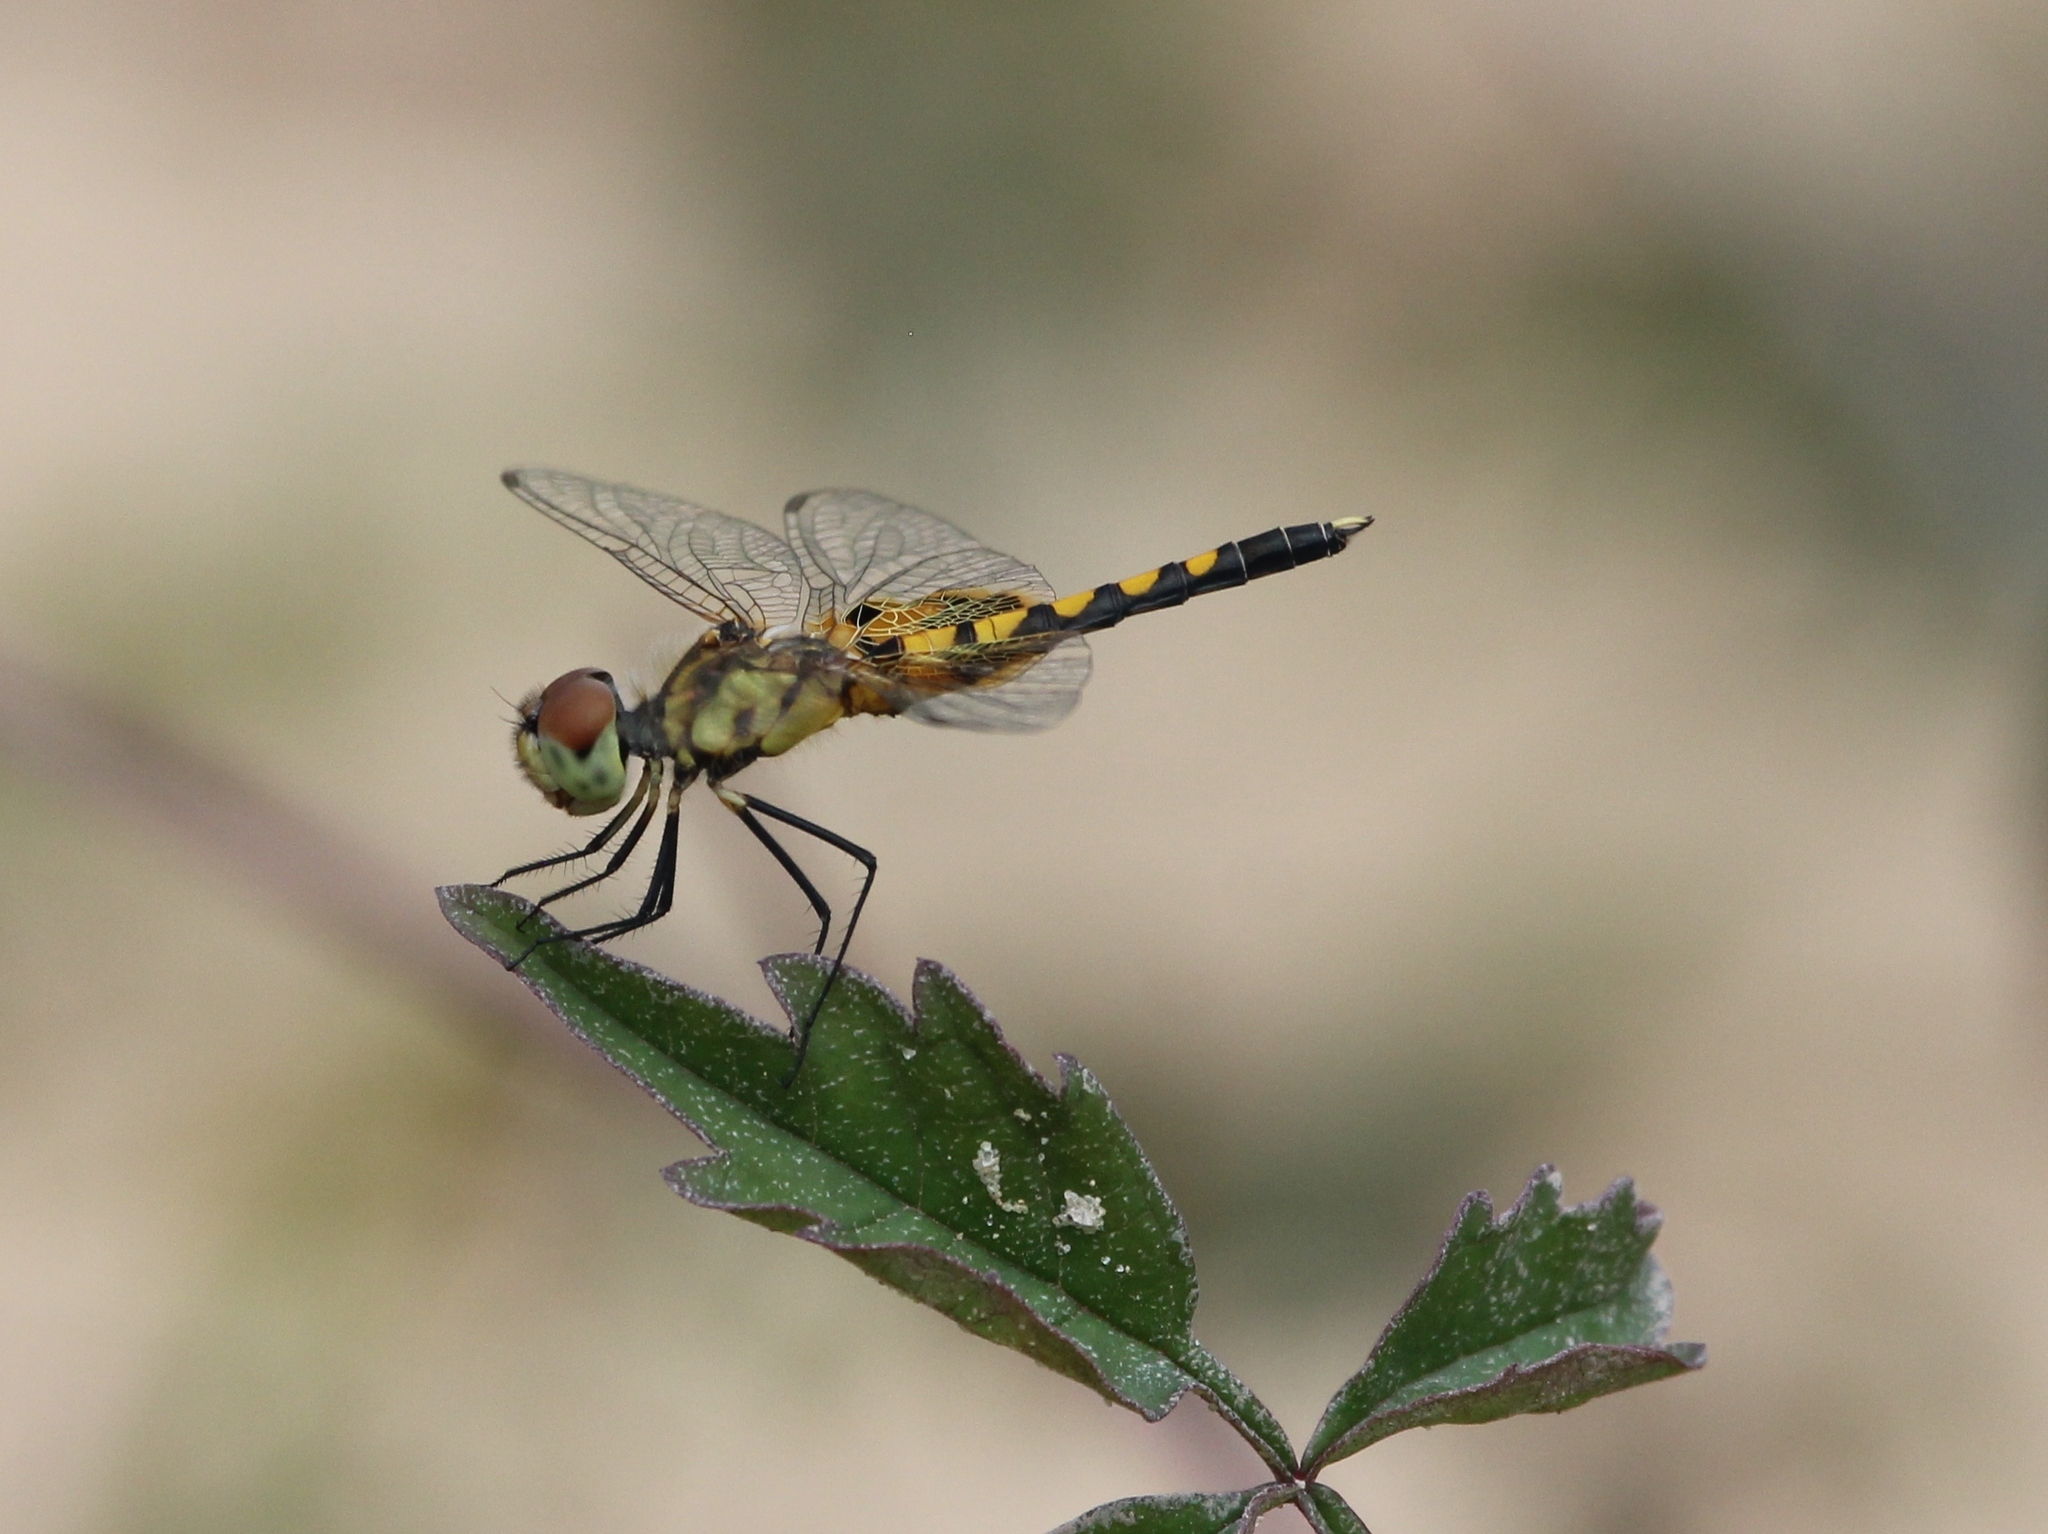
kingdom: Animalia
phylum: Arthropoda
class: Insecta
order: Odonata
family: Libellulidae
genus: Celithemis
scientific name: Celithemis amanda
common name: Amanda's pennant
